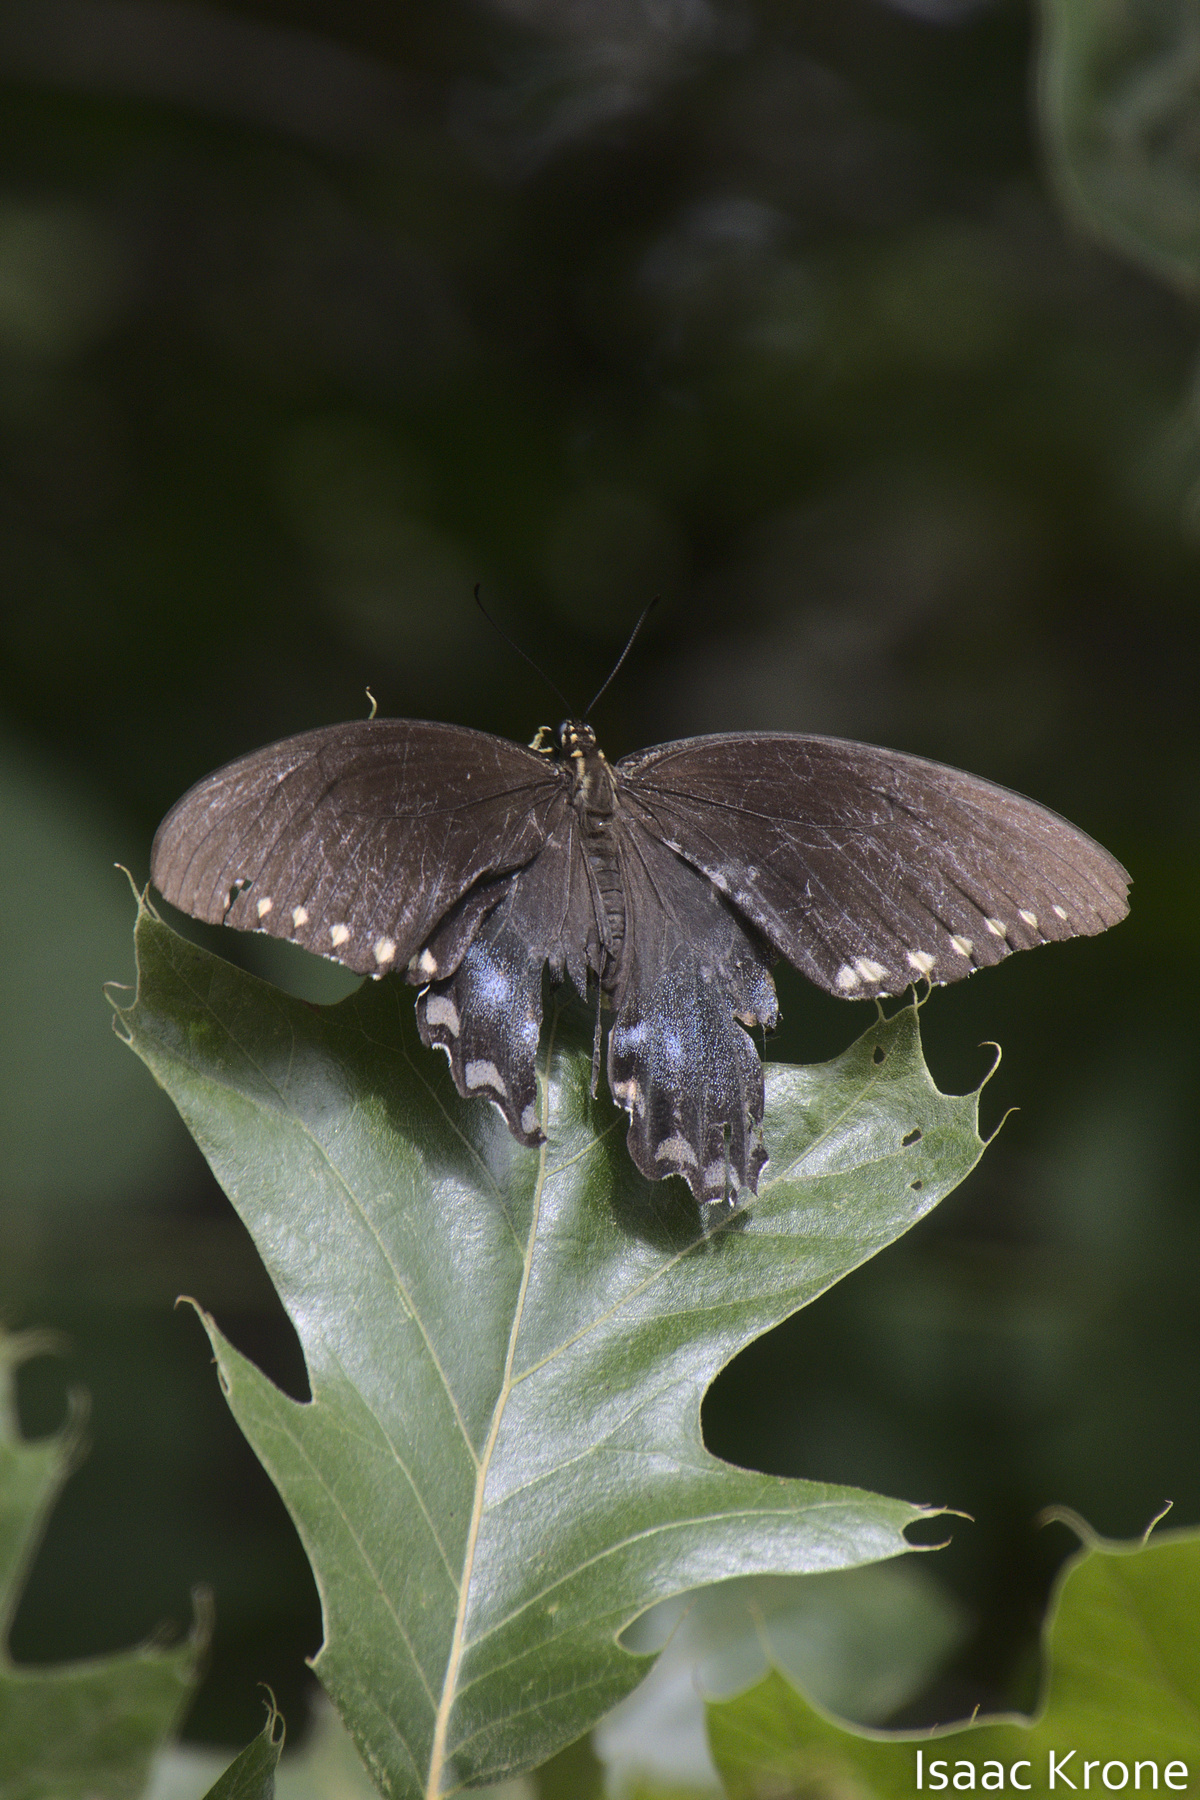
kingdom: Animalia
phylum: Arthropoda
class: Insecta
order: Lepidoptera
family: Papilionidae
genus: Papilio
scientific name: Papilio troilus
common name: Spicebush swallowtail
